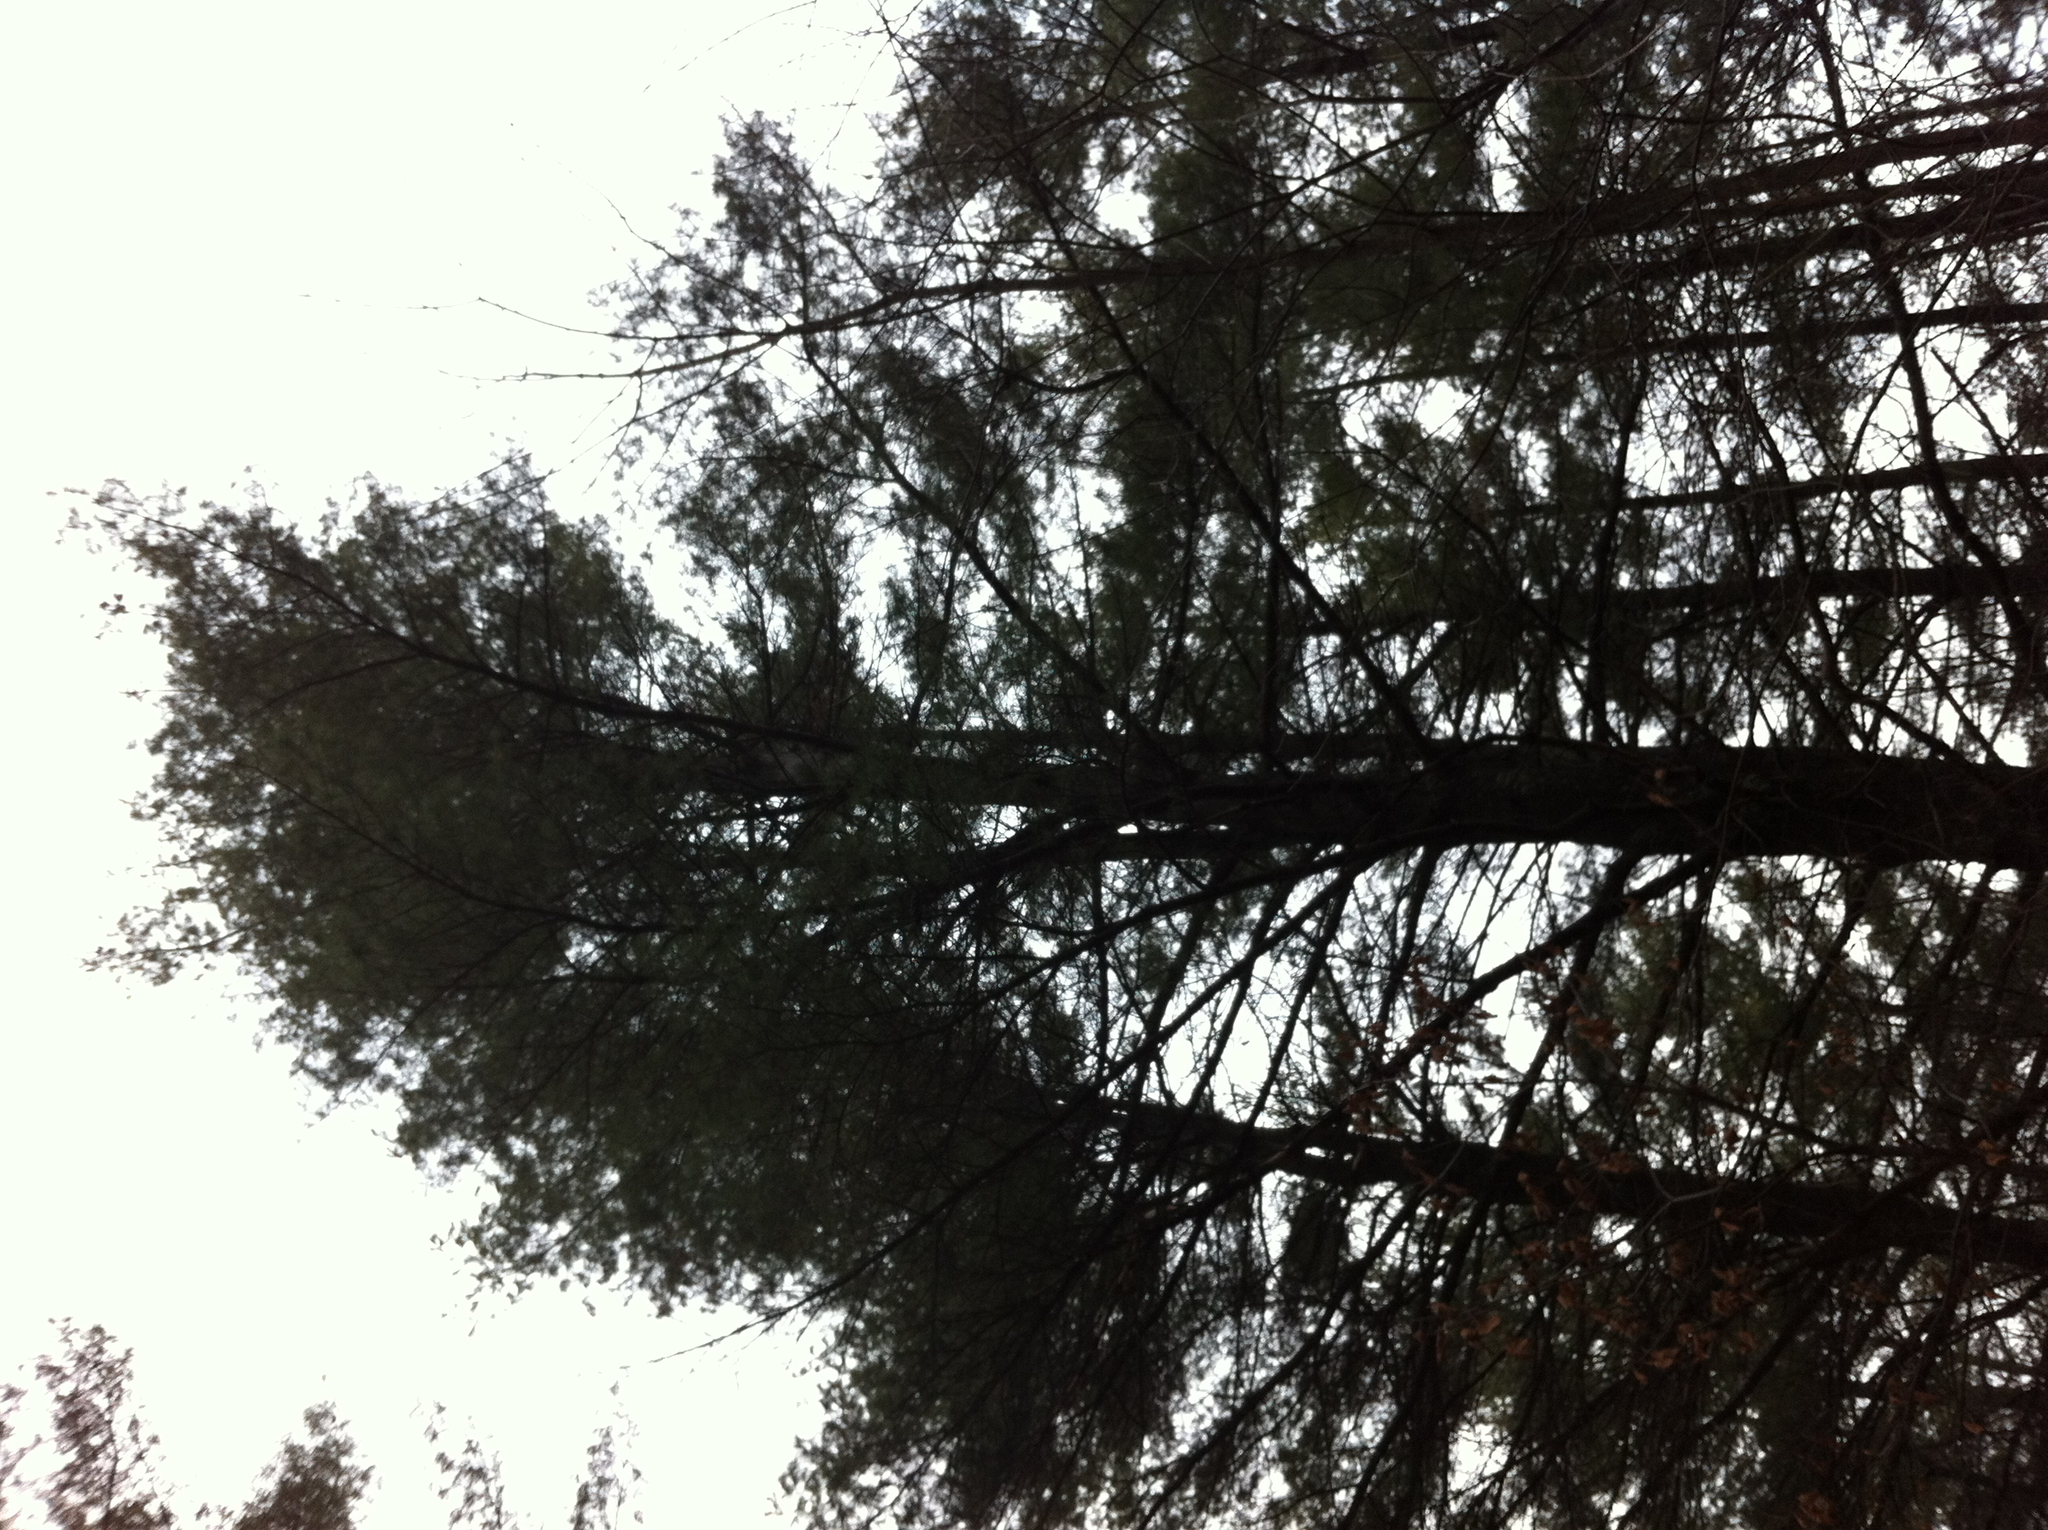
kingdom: Plantae
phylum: Tracheophyta
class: Pinopsida
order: Pinales
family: Pinaceae
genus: Pinus
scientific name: Pinus strobus
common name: Weymouth pine
